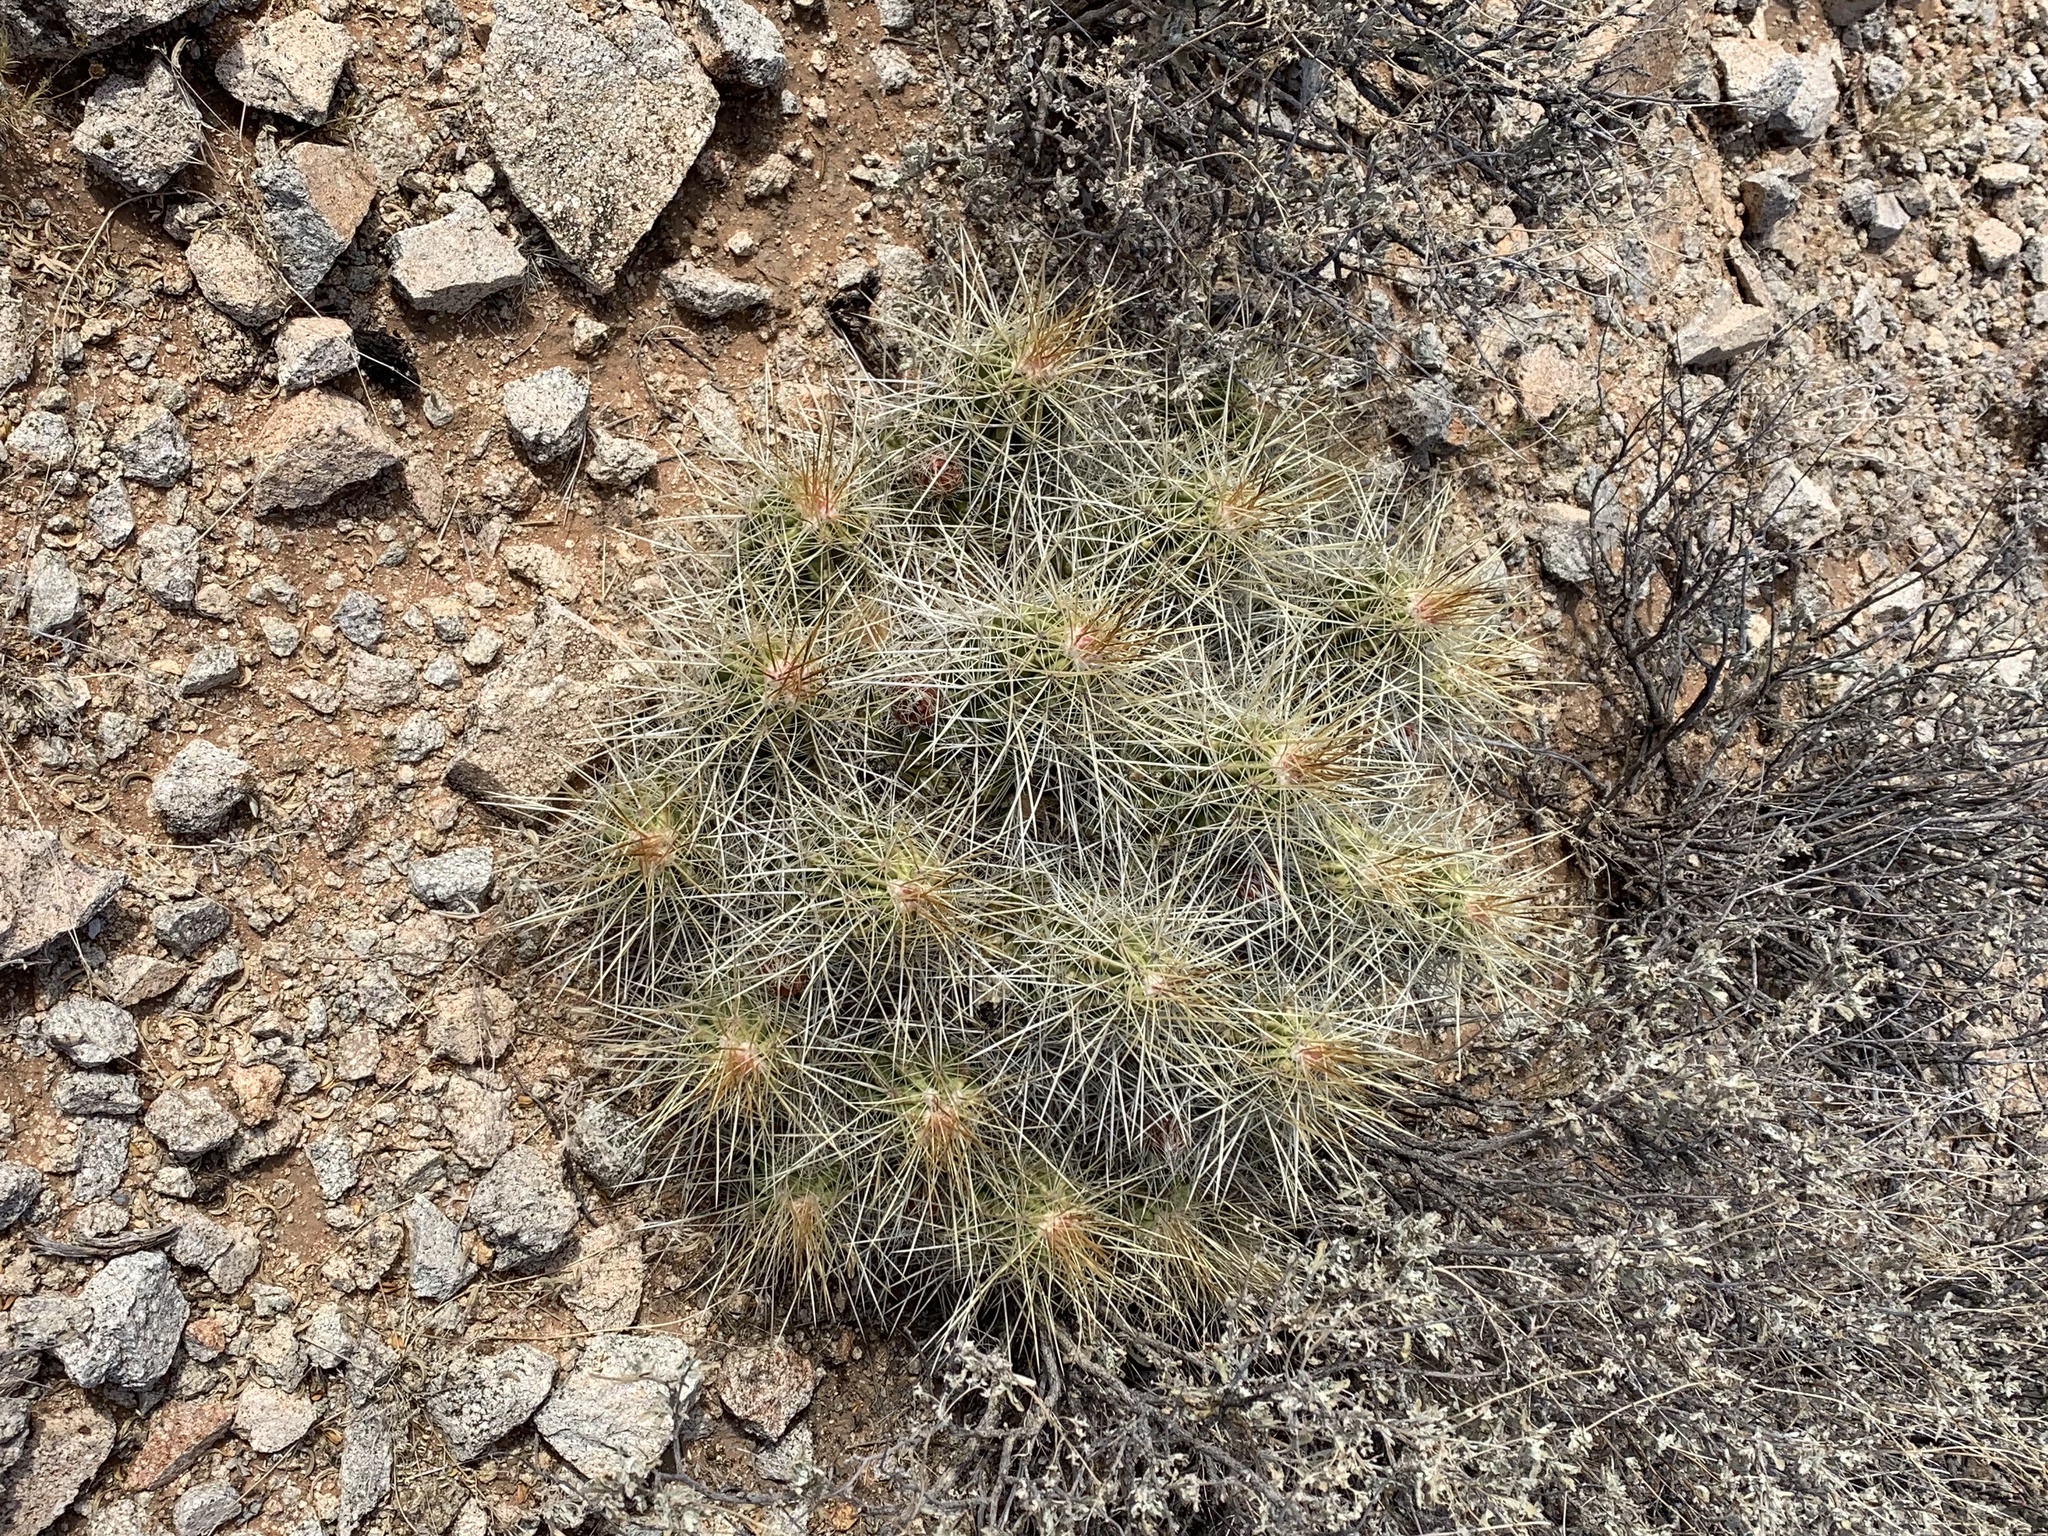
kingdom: Plantae
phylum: Tracheophyta
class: Magnoliopsida
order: Caryophyllales
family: Cactaceae
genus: Echinocereus
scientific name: Echinocereus stramineus
